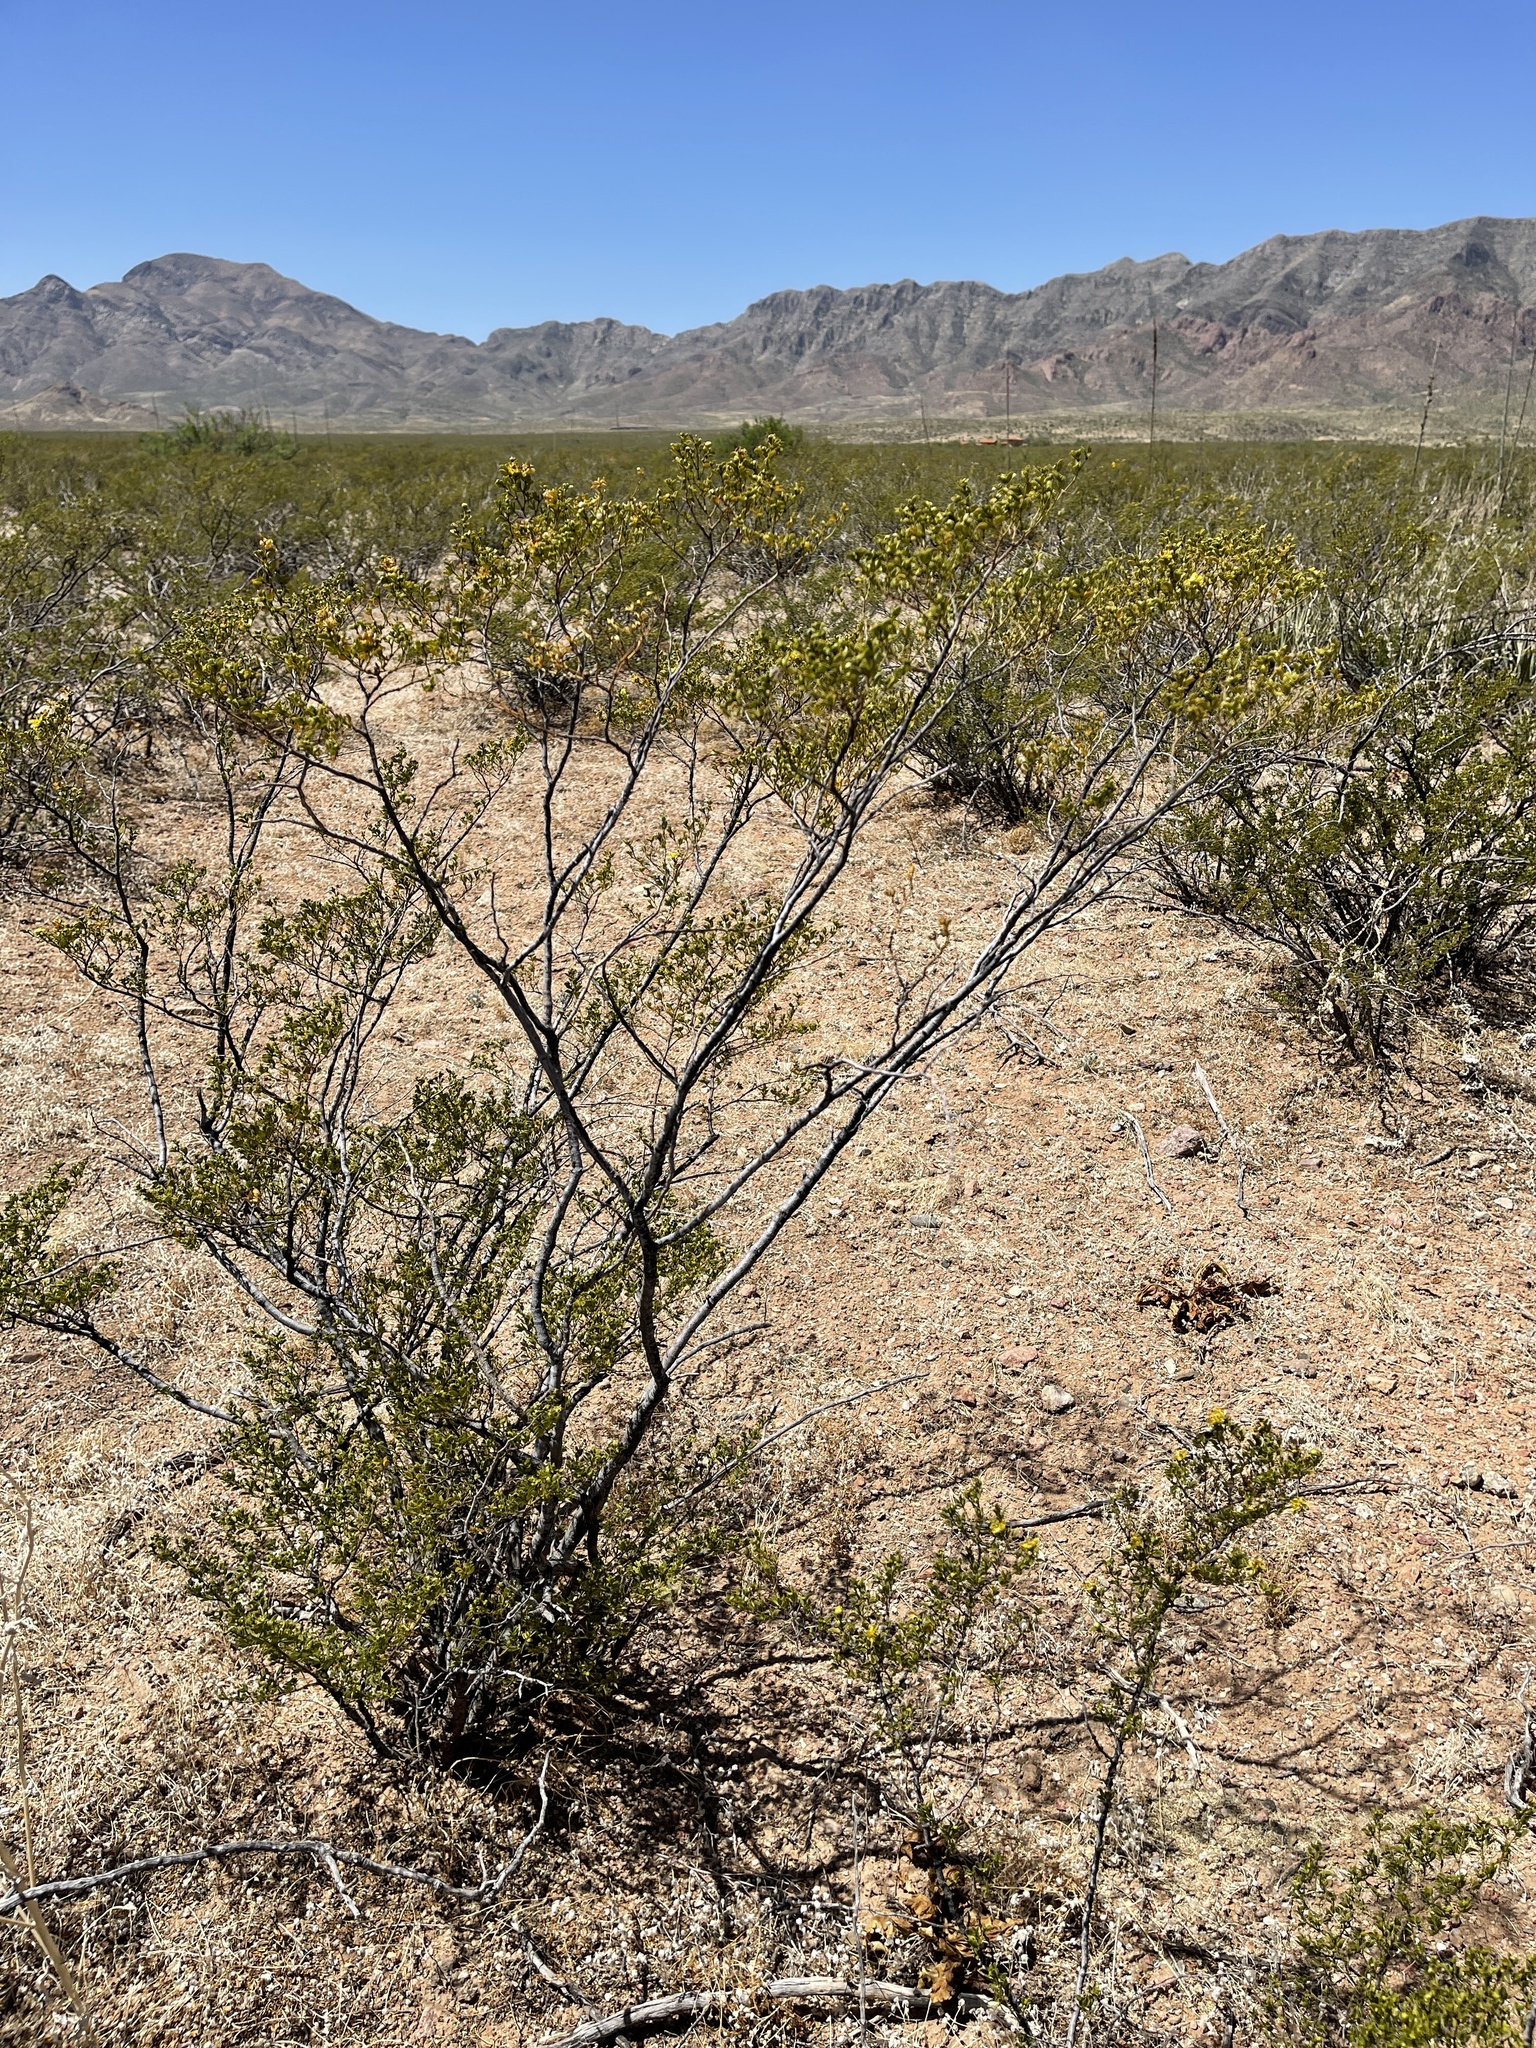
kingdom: Plantae
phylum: Tracheophyta
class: Magnoliopsida
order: Zygophyllales
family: Zygophyllaceae
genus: Larrea
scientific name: Larrea tridentata
